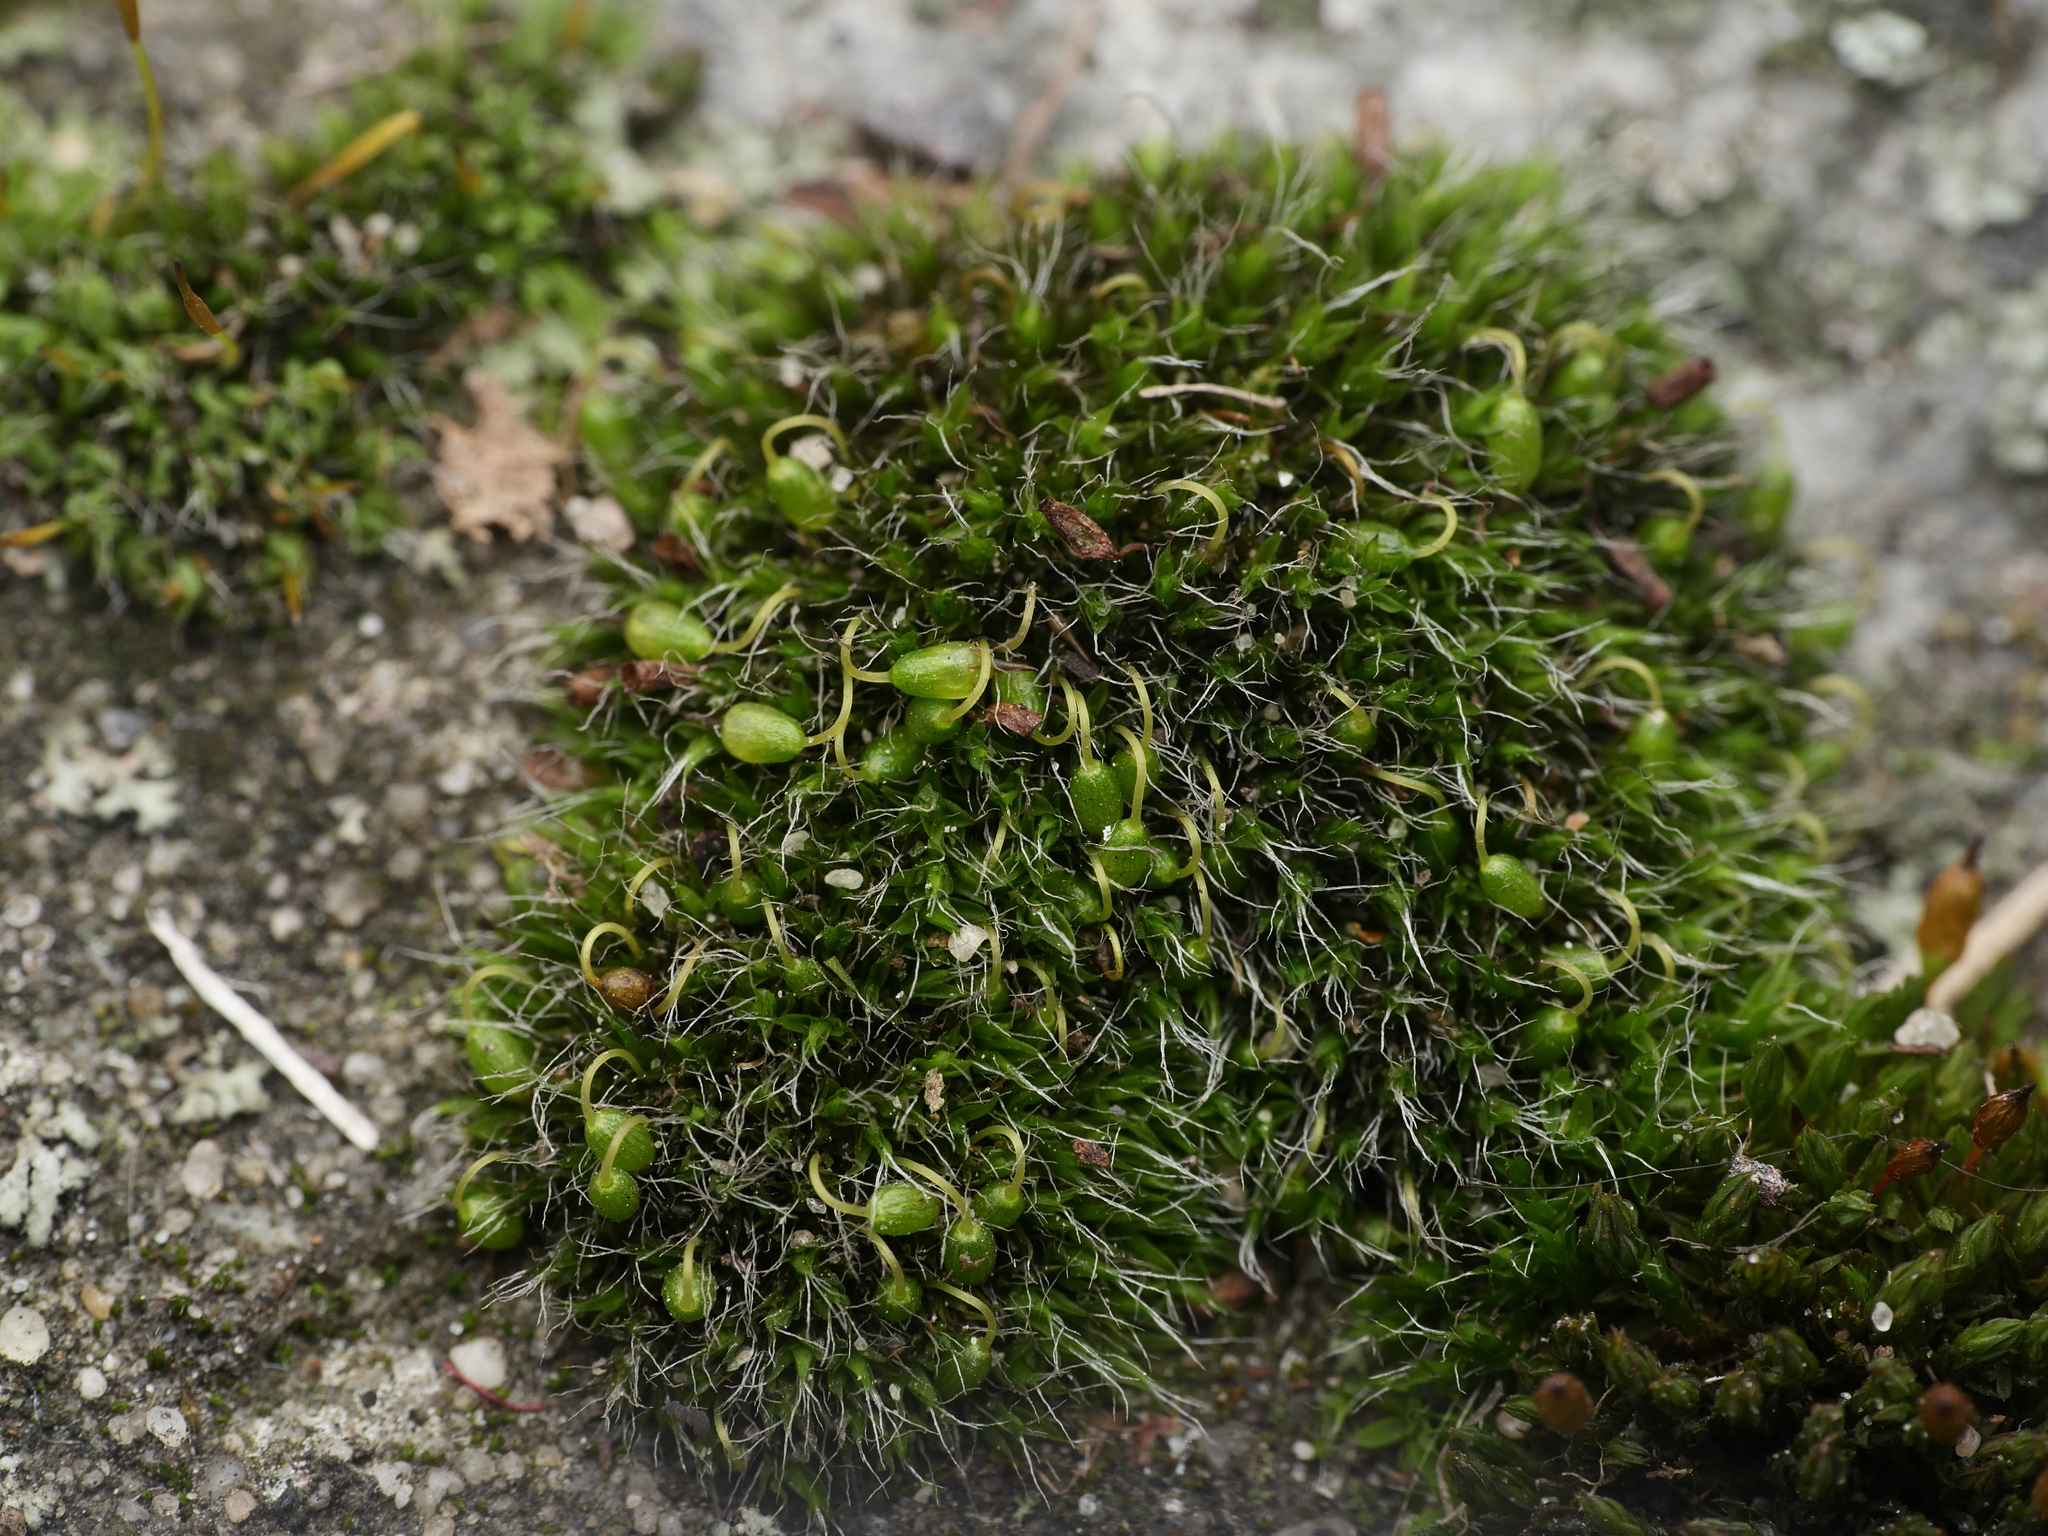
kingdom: Plantae
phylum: Bryophyta
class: Bryopsida
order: Grimmiales
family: Grimmiaceae
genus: Grimmia
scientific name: Grimmia pulvinata
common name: Grey-cushioned grimmia
